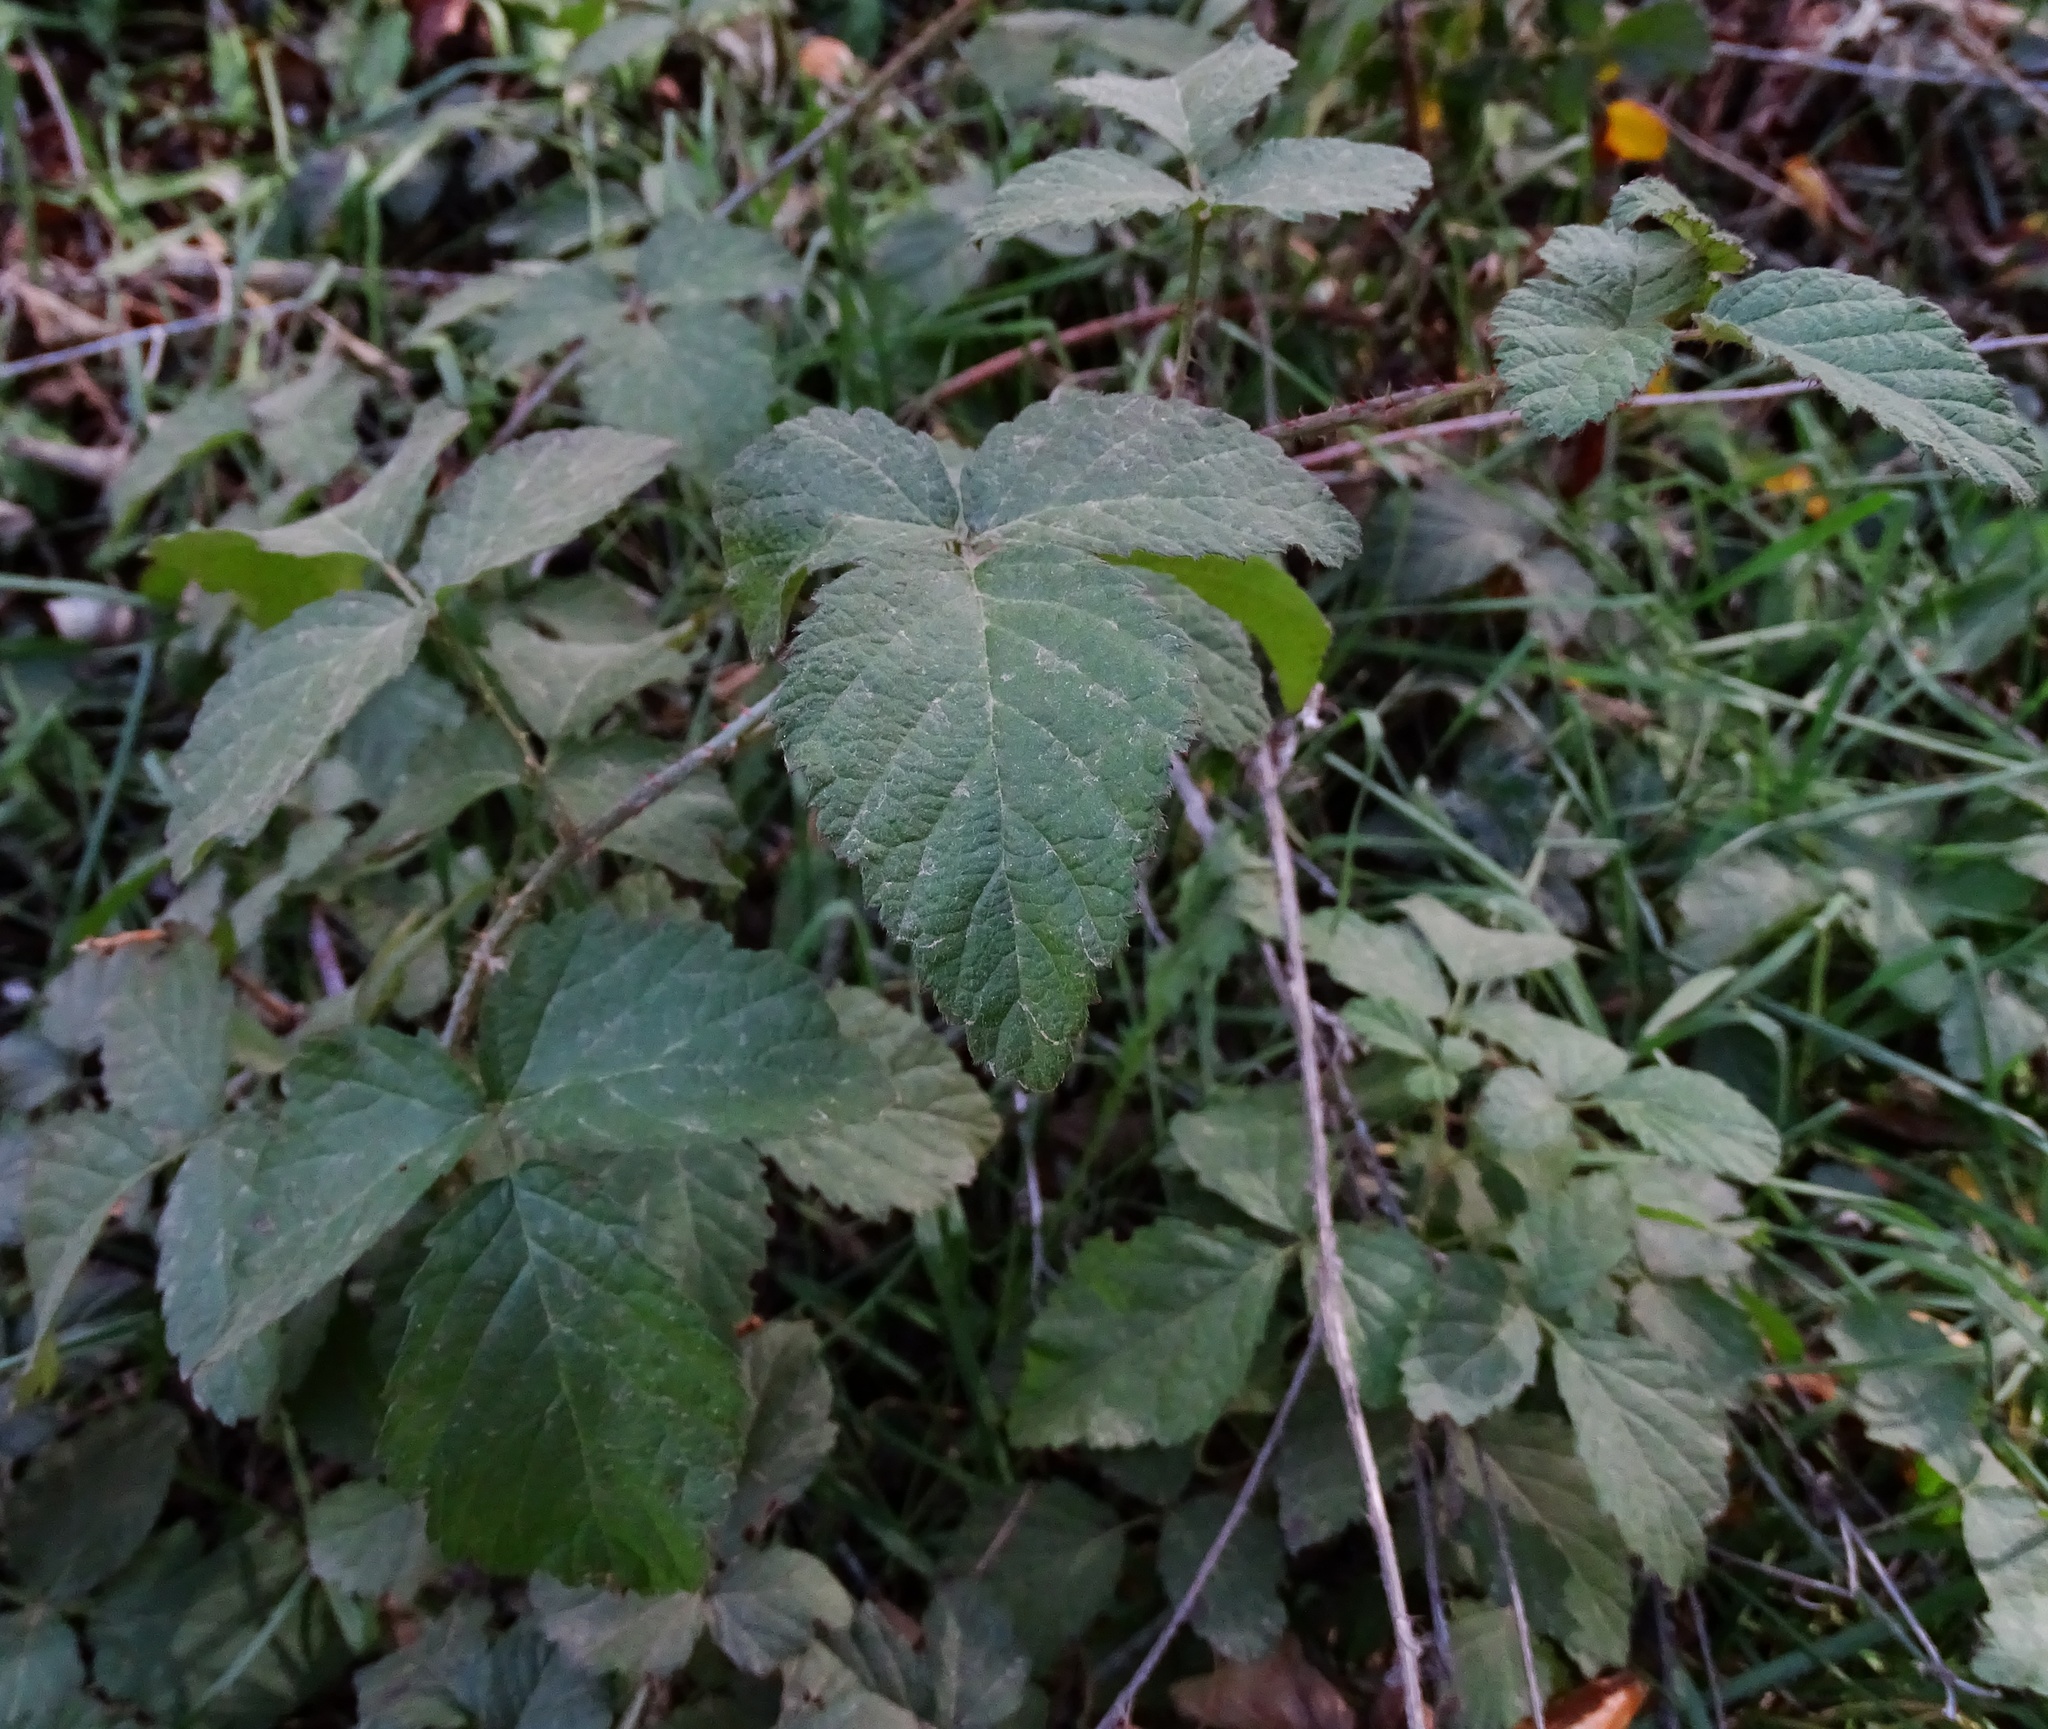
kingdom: Plantae
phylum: Tracheophyta
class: Magnoliopsida
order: Rosales
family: Rosaceae
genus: Rubus
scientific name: Rubus ursinus
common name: Pacific blackberry
